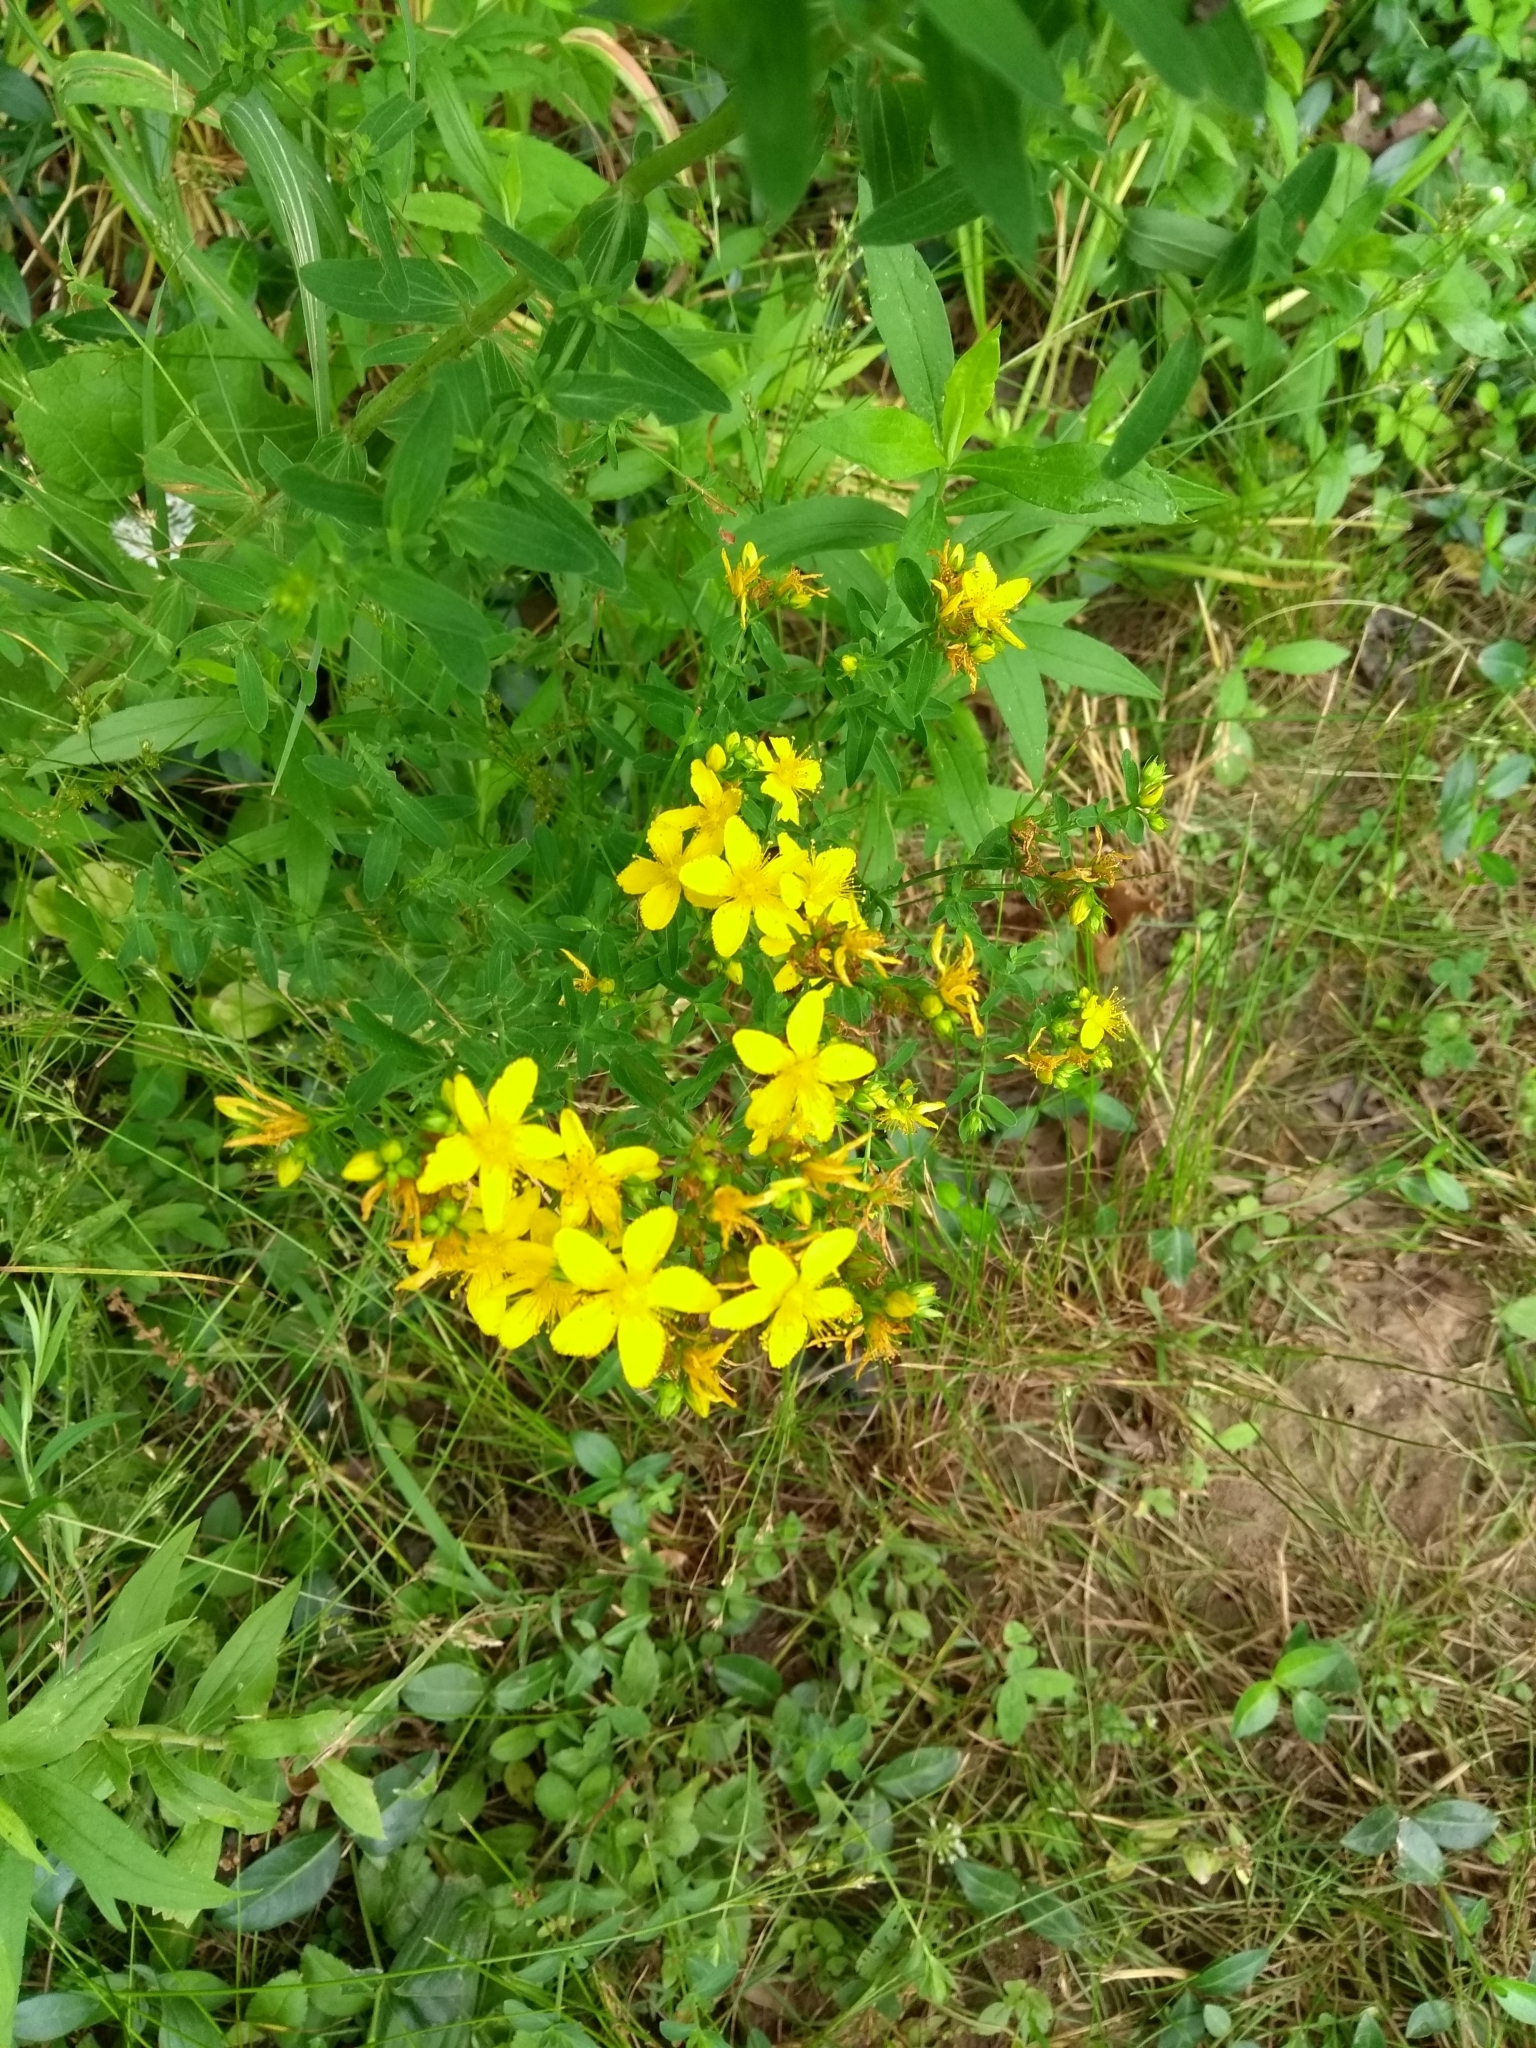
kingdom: Plantae
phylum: Tracheophyta
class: Magnoliopsida
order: Malpighiales
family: Hypericaceae
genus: Hypericum
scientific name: Hypericum perforatum
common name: Common st. johnswort
